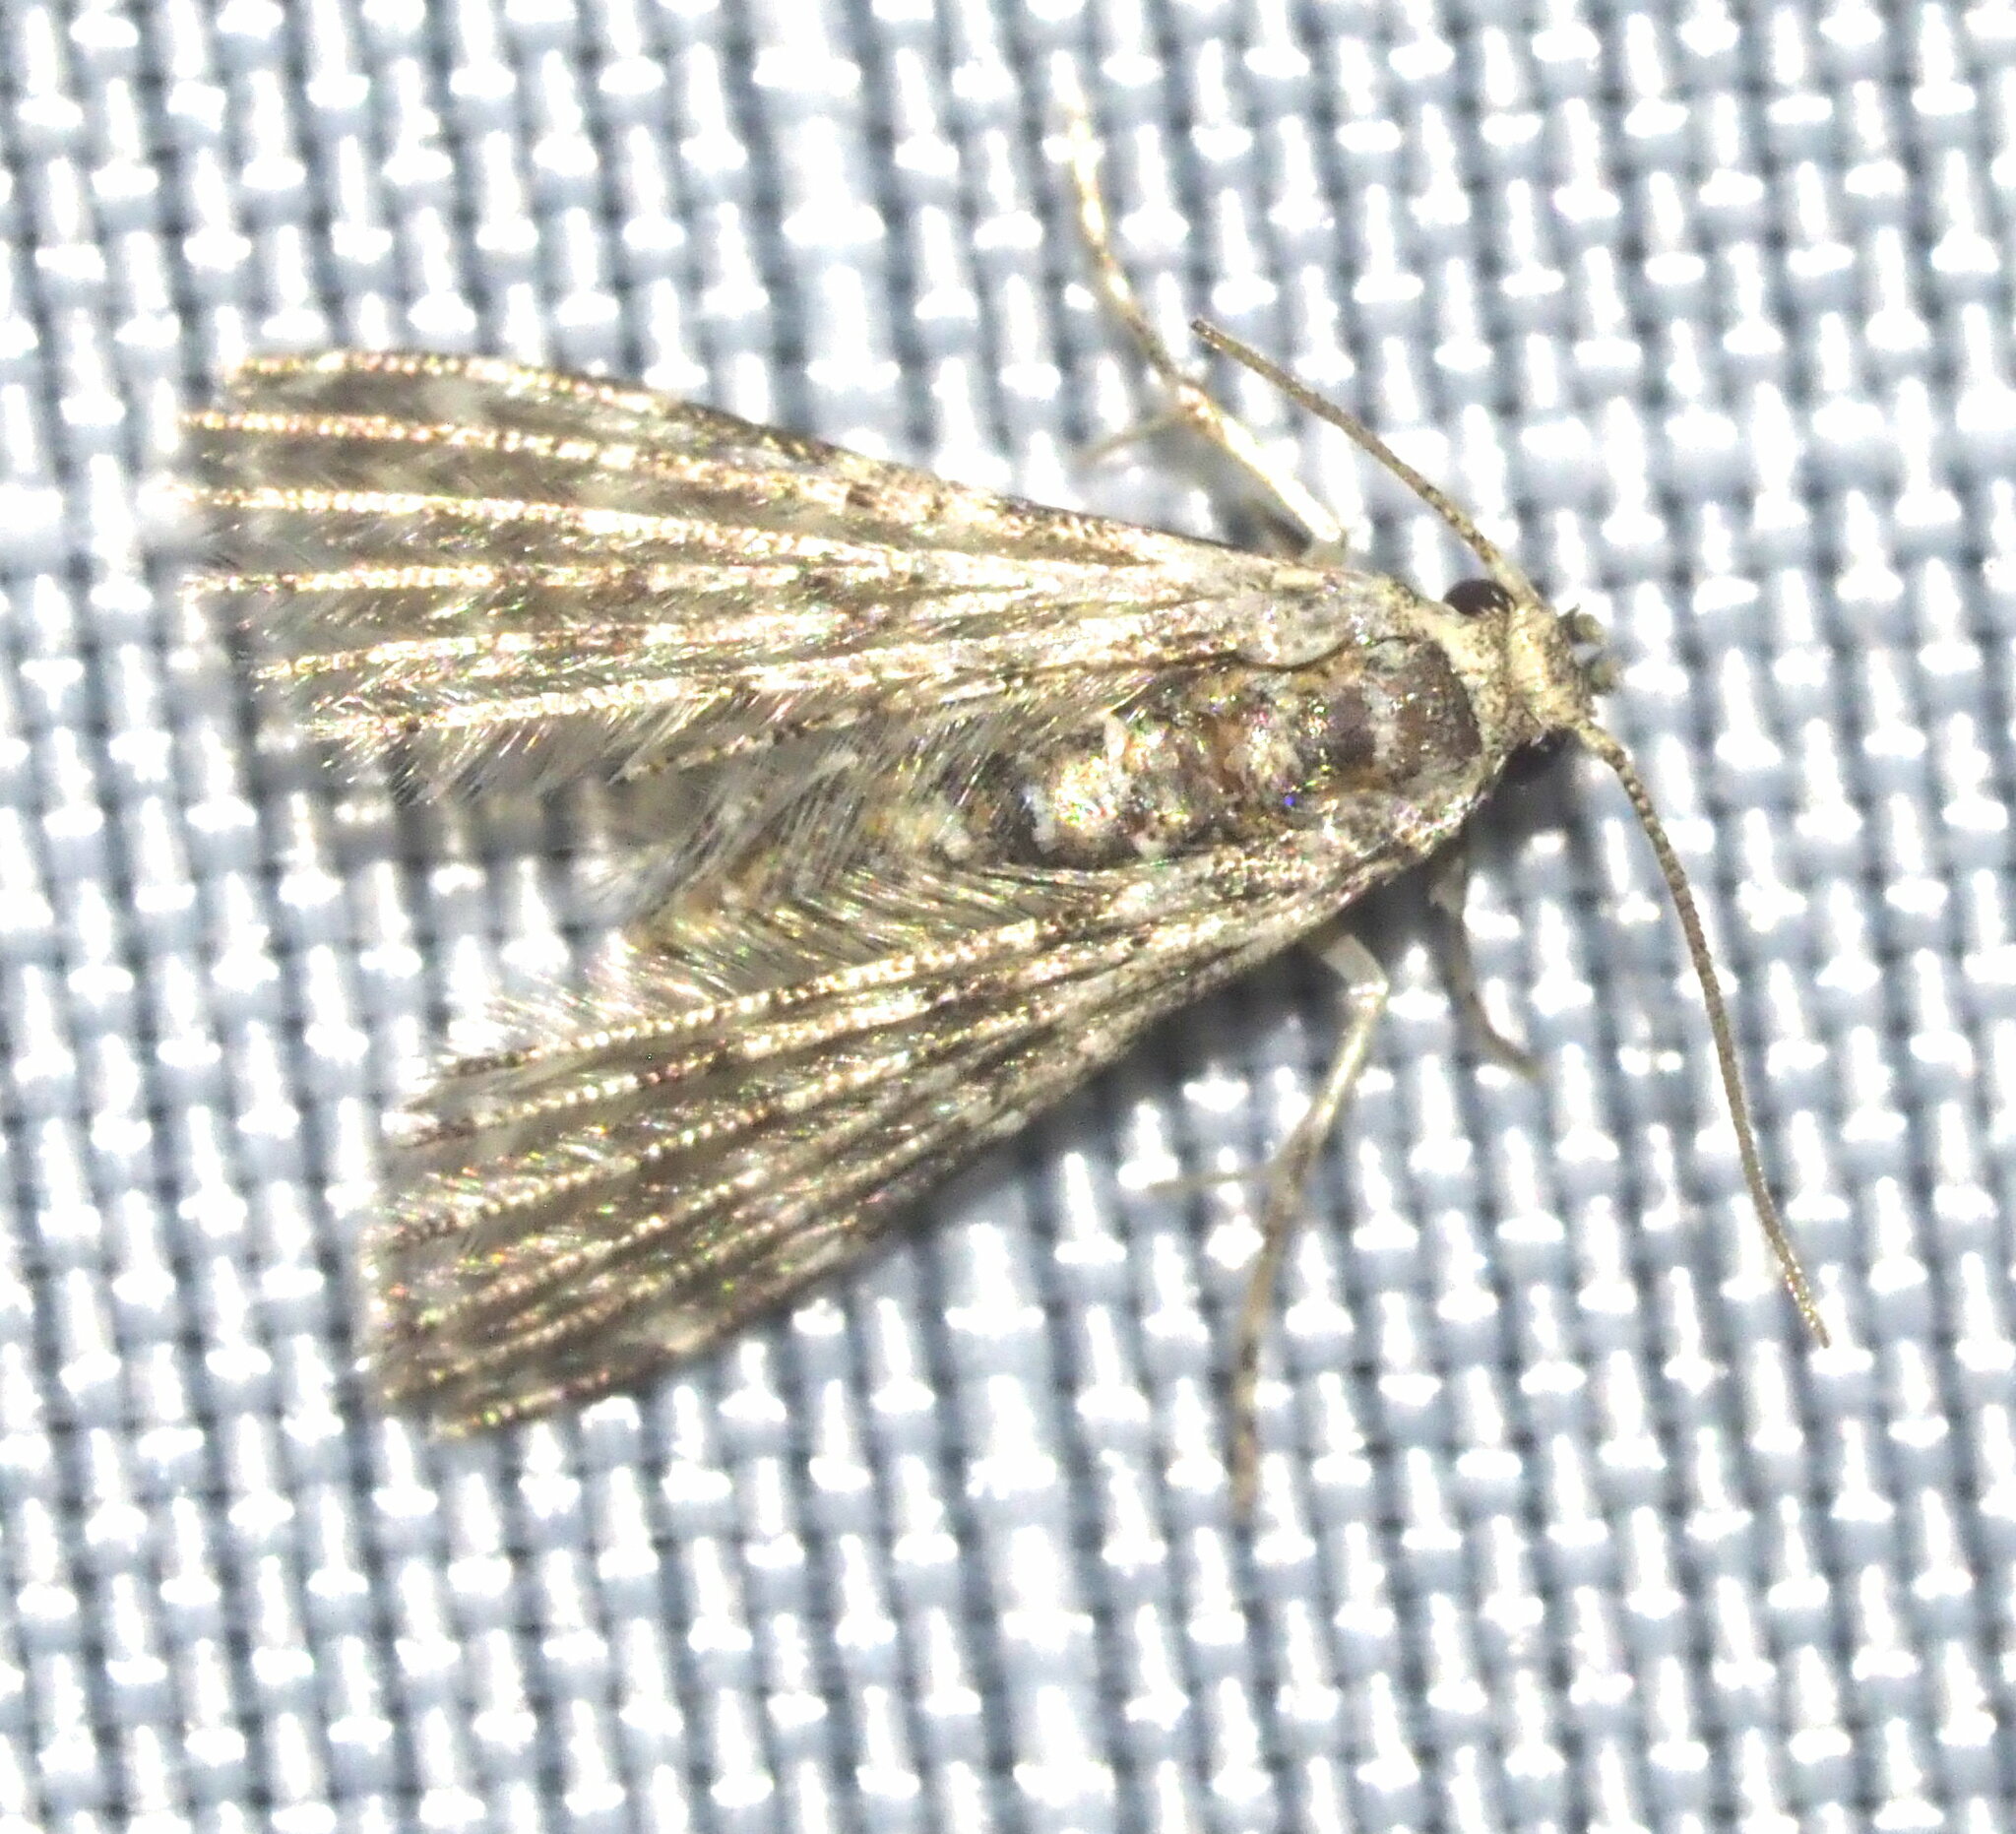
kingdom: Animalia
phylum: Arthropoda
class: Insecta
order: Lepidoptera
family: Alucitidae
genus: Alucita
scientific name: Alucita objurgatella
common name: Moth
